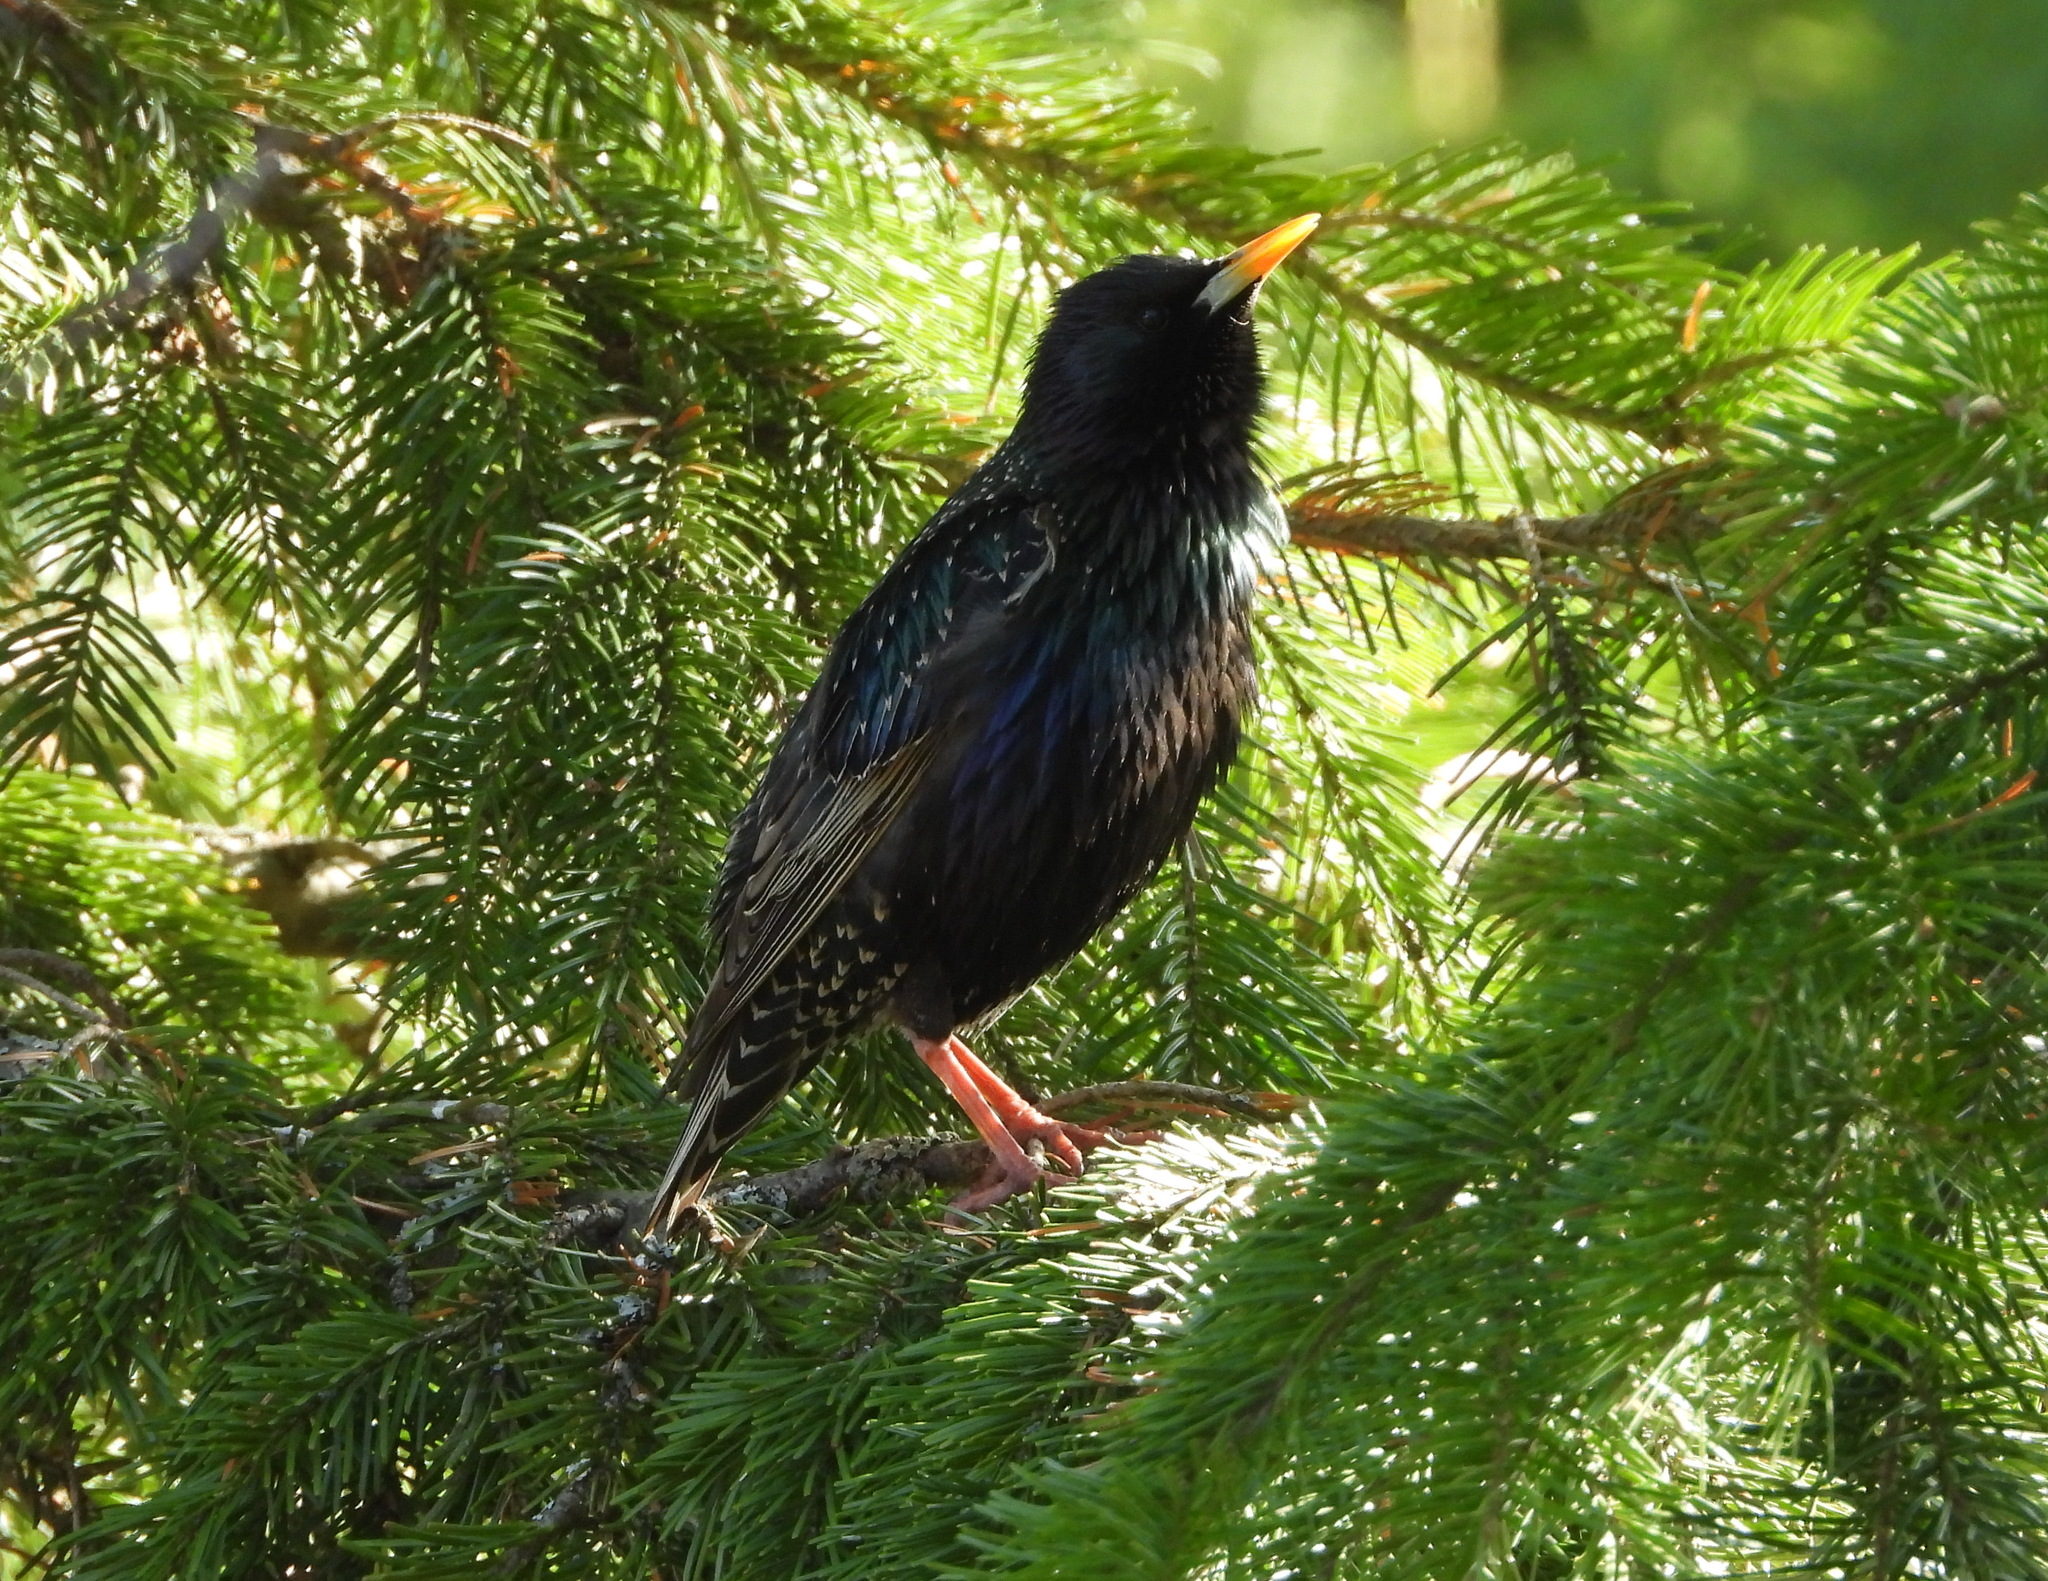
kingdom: Animalia
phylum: Chordata
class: Aves
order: Passeriformes
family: Sturnidae
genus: Sturnus
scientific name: Sturnus vulgaris
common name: Common starling
